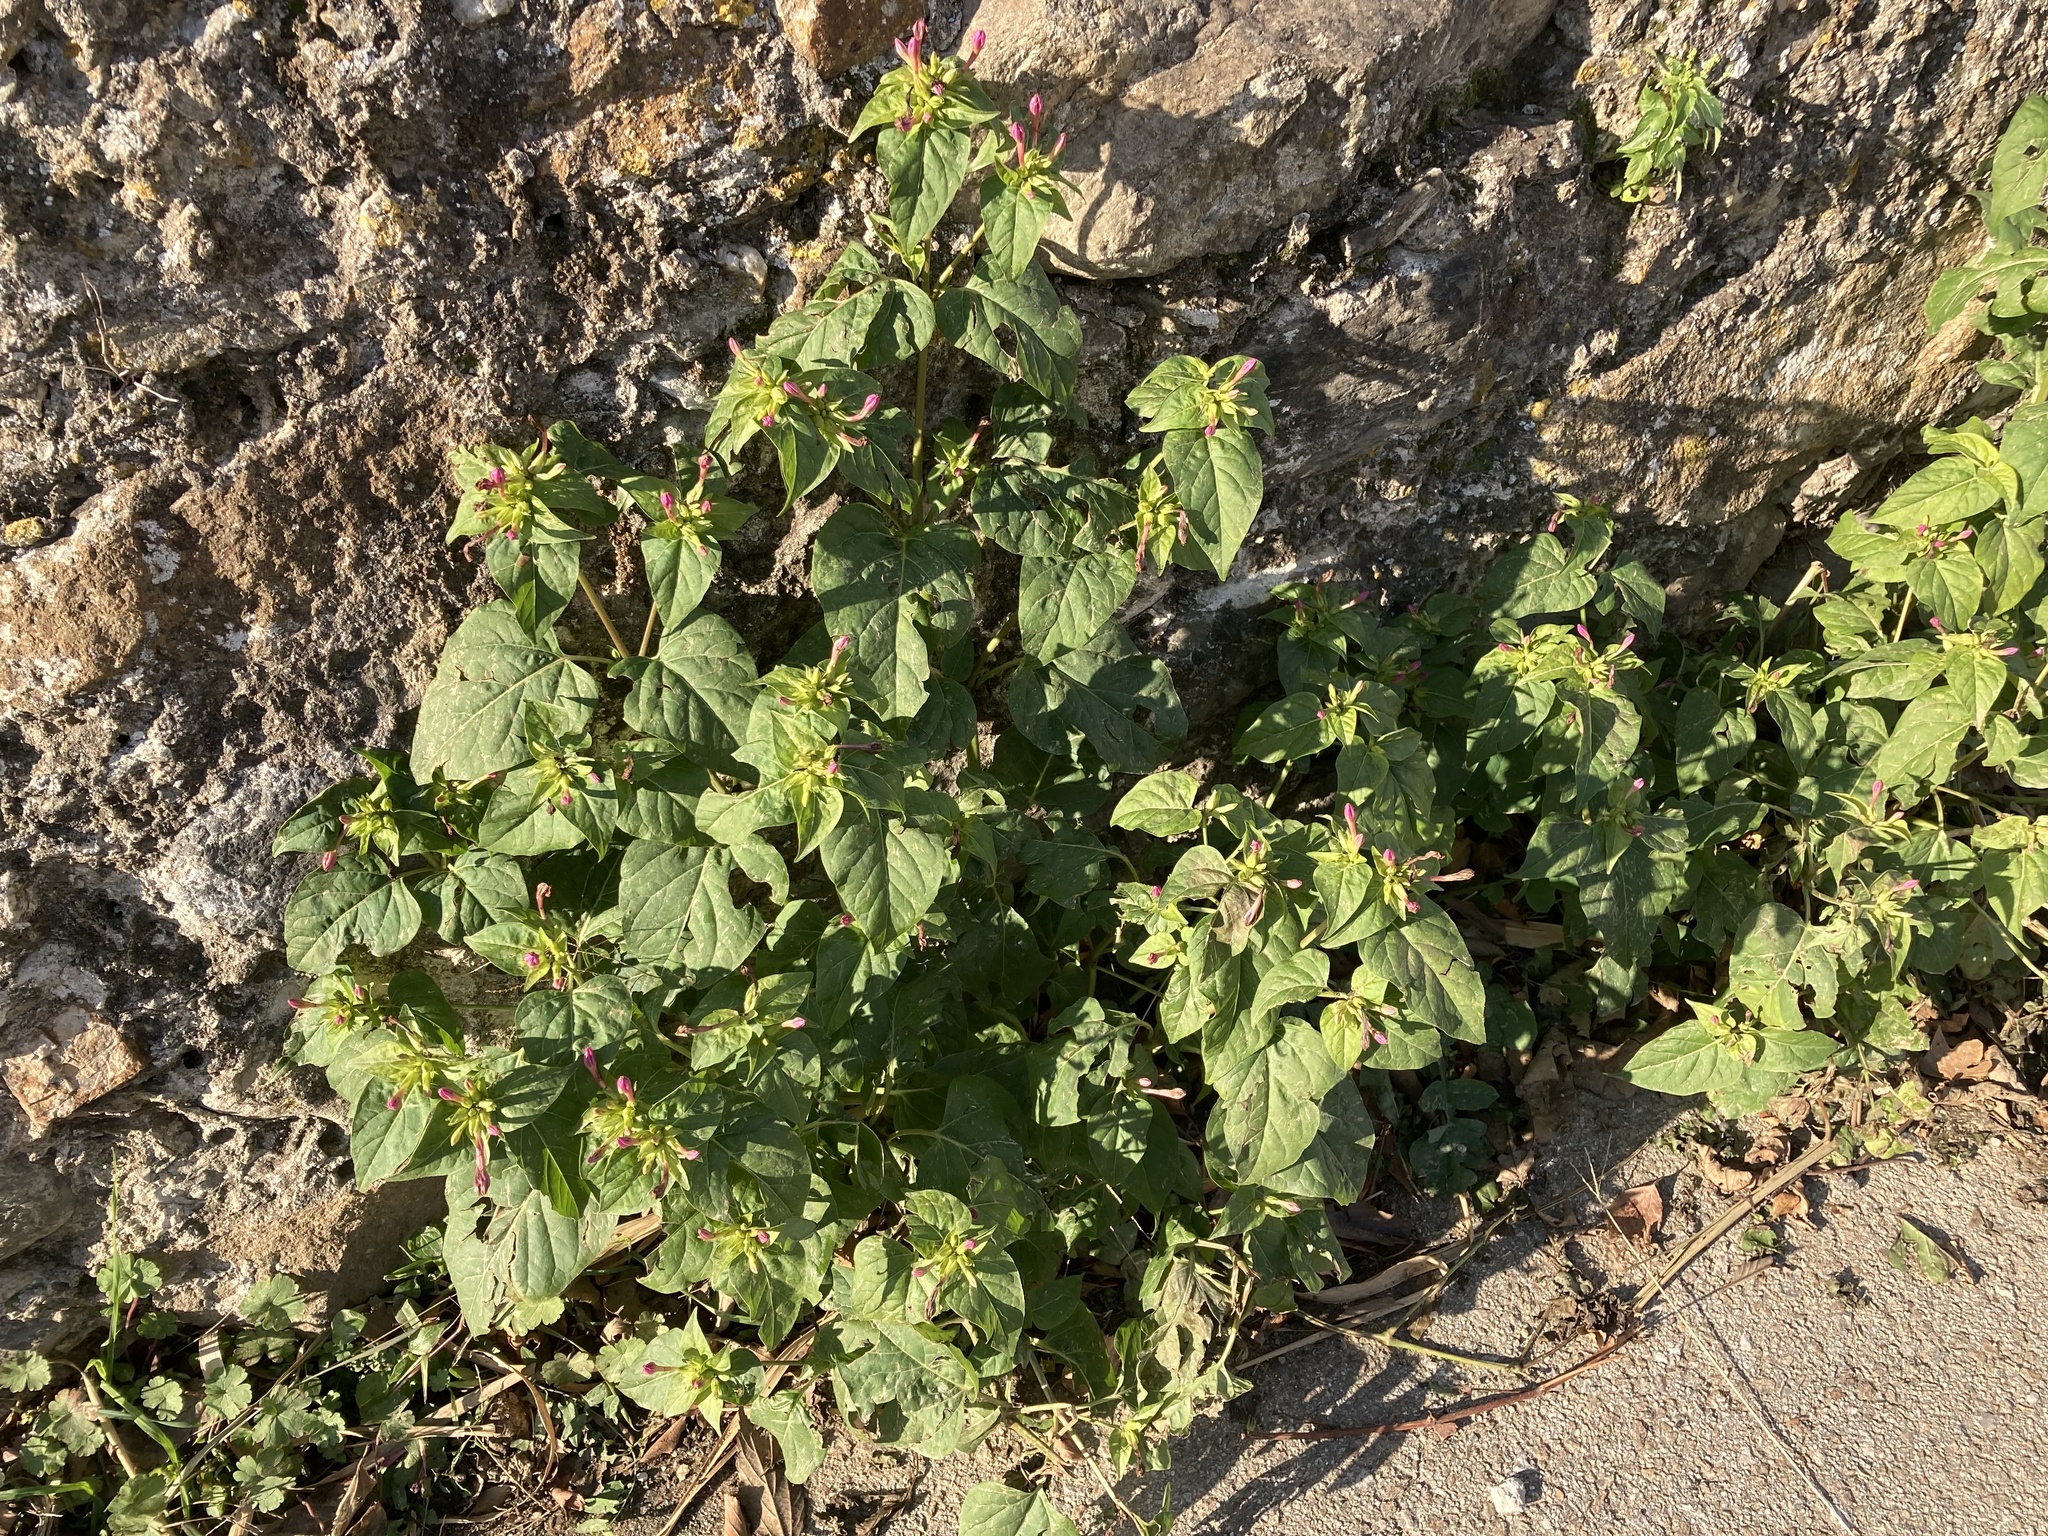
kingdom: Plantae
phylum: Tracheophyta
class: Magnoliopsida
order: Caryophyllales
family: Nyctaginaceae
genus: Mirabilis
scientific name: Mirabilis jalapa
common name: Marvel-of-peru
